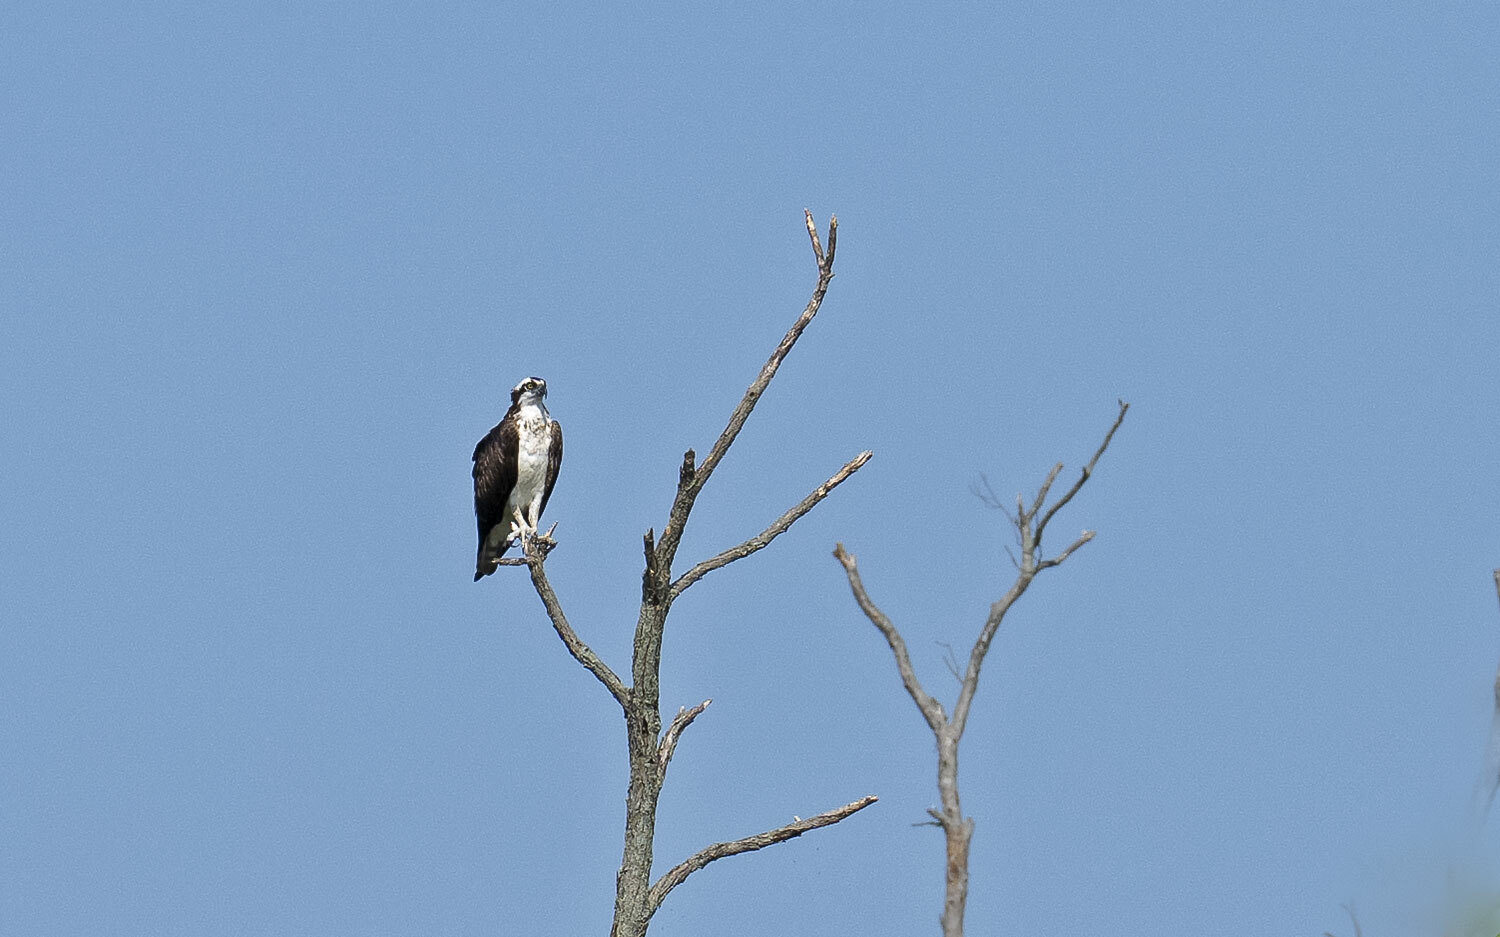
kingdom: Animalia
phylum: Chordata
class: Aves
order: Accipitriformes
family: Pandionidae
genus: Pandion
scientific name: Pandion haliaetus
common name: Osprey
